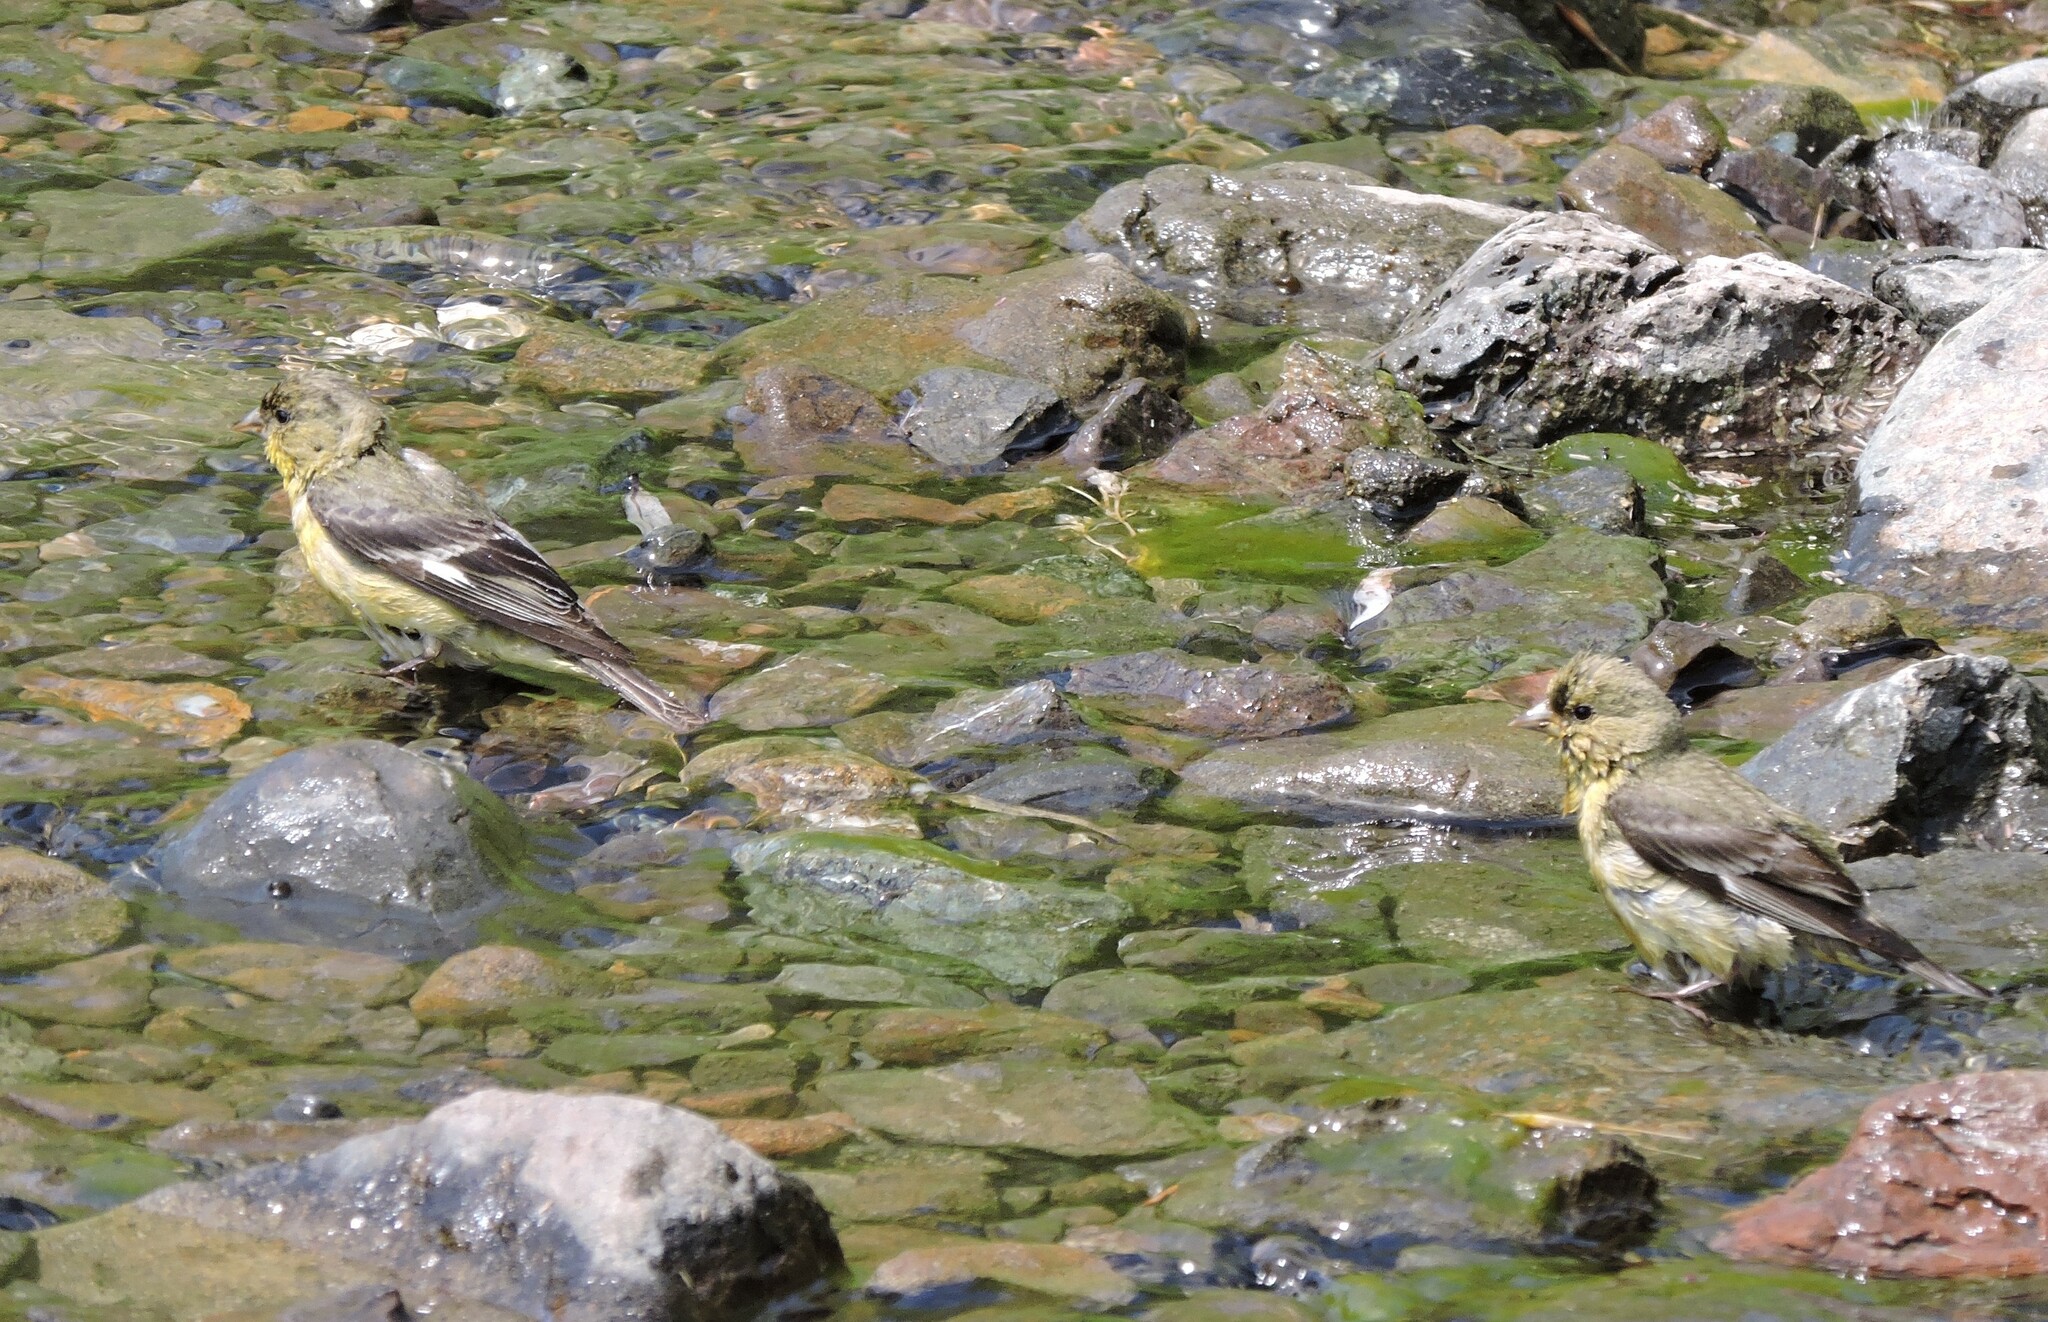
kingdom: Animalia
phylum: Chordata
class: Aves
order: Passeriformes
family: Fringillidae
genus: Spinus
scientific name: Spinus psaltria
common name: Lesser goldfinch
